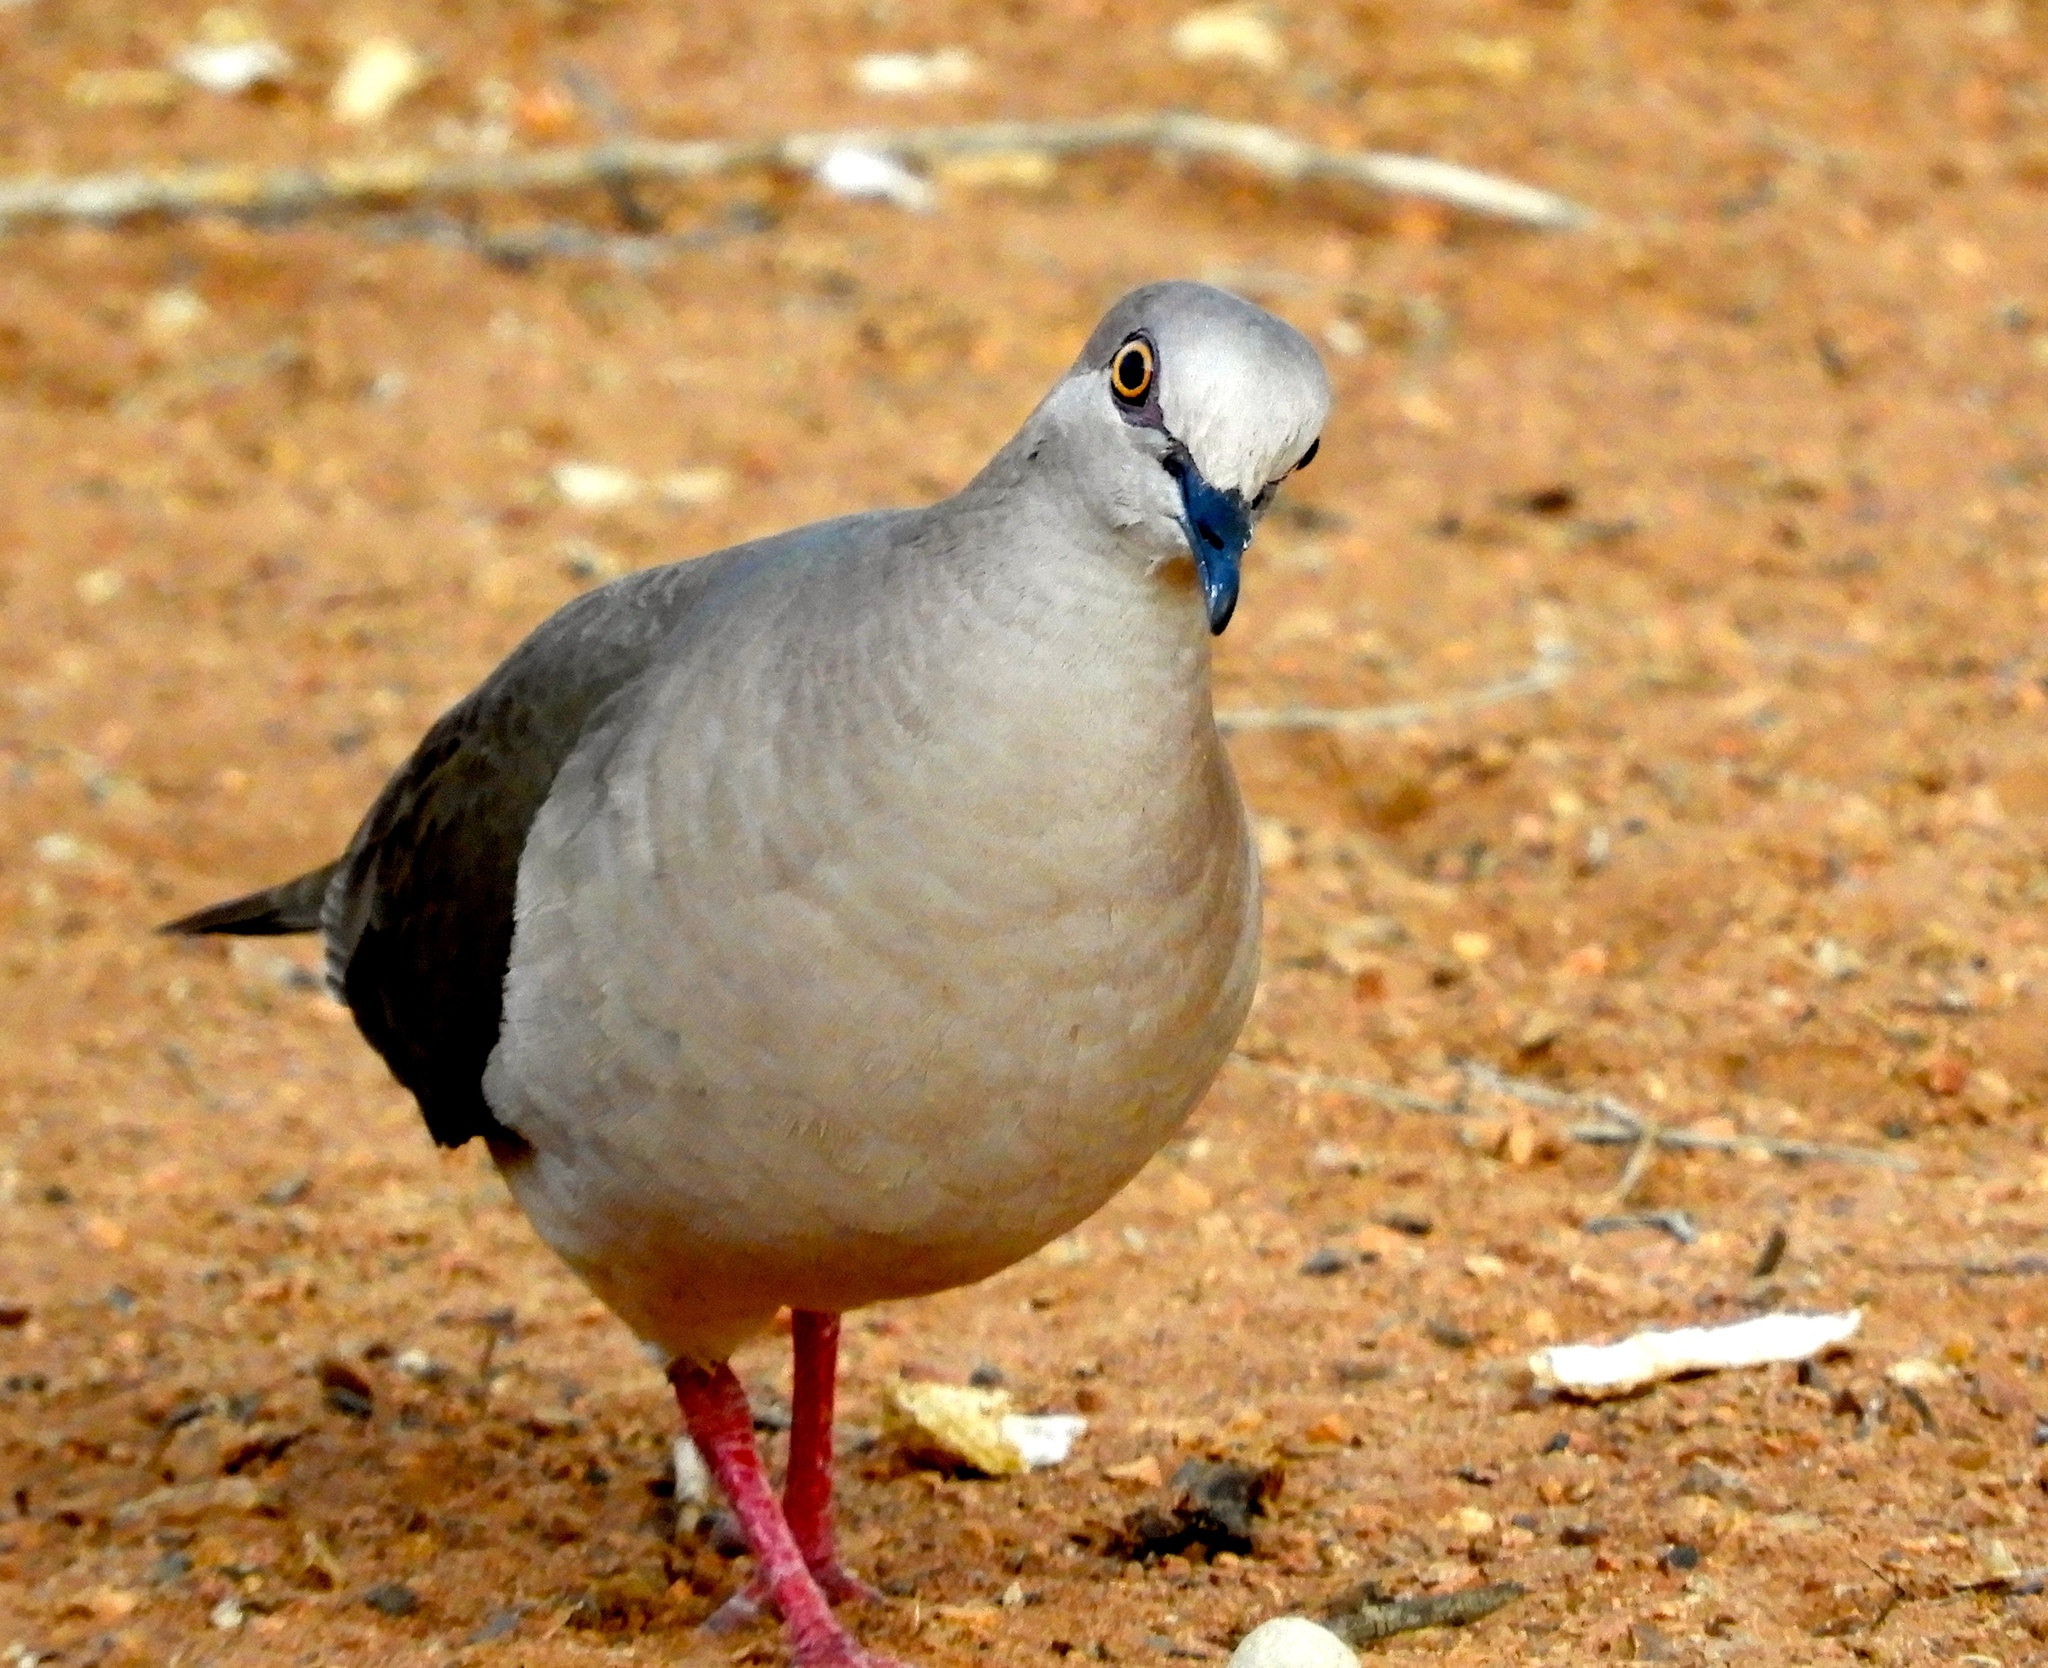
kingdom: Animalia
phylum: Chordata
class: Aves
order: Columbiformes
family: Columbidae
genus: Leptotila
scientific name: Leptotila verreauxi
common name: White-tipped dove
